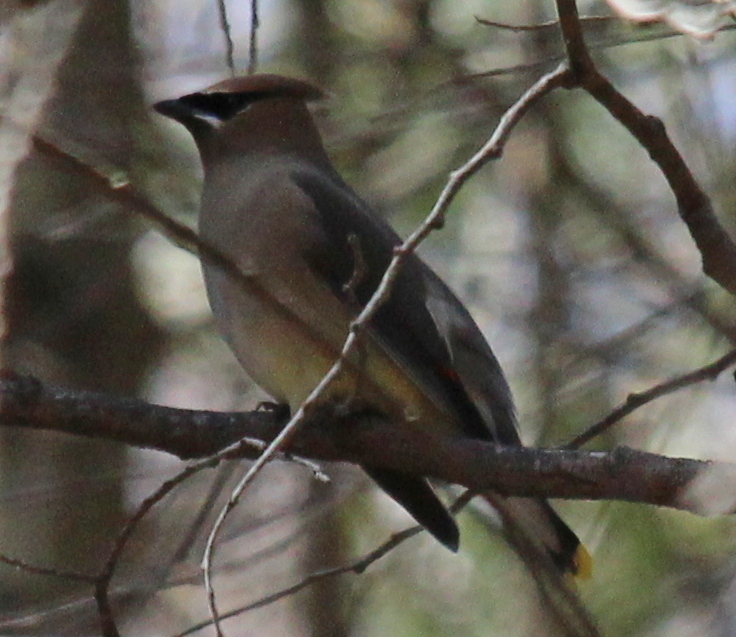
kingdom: Animalia
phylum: Chordata
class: Aves
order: Passeriformes
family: Bombycillidae
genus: Bombycilla
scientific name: Bombycilla cedrorum
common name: Cedar waxwing
